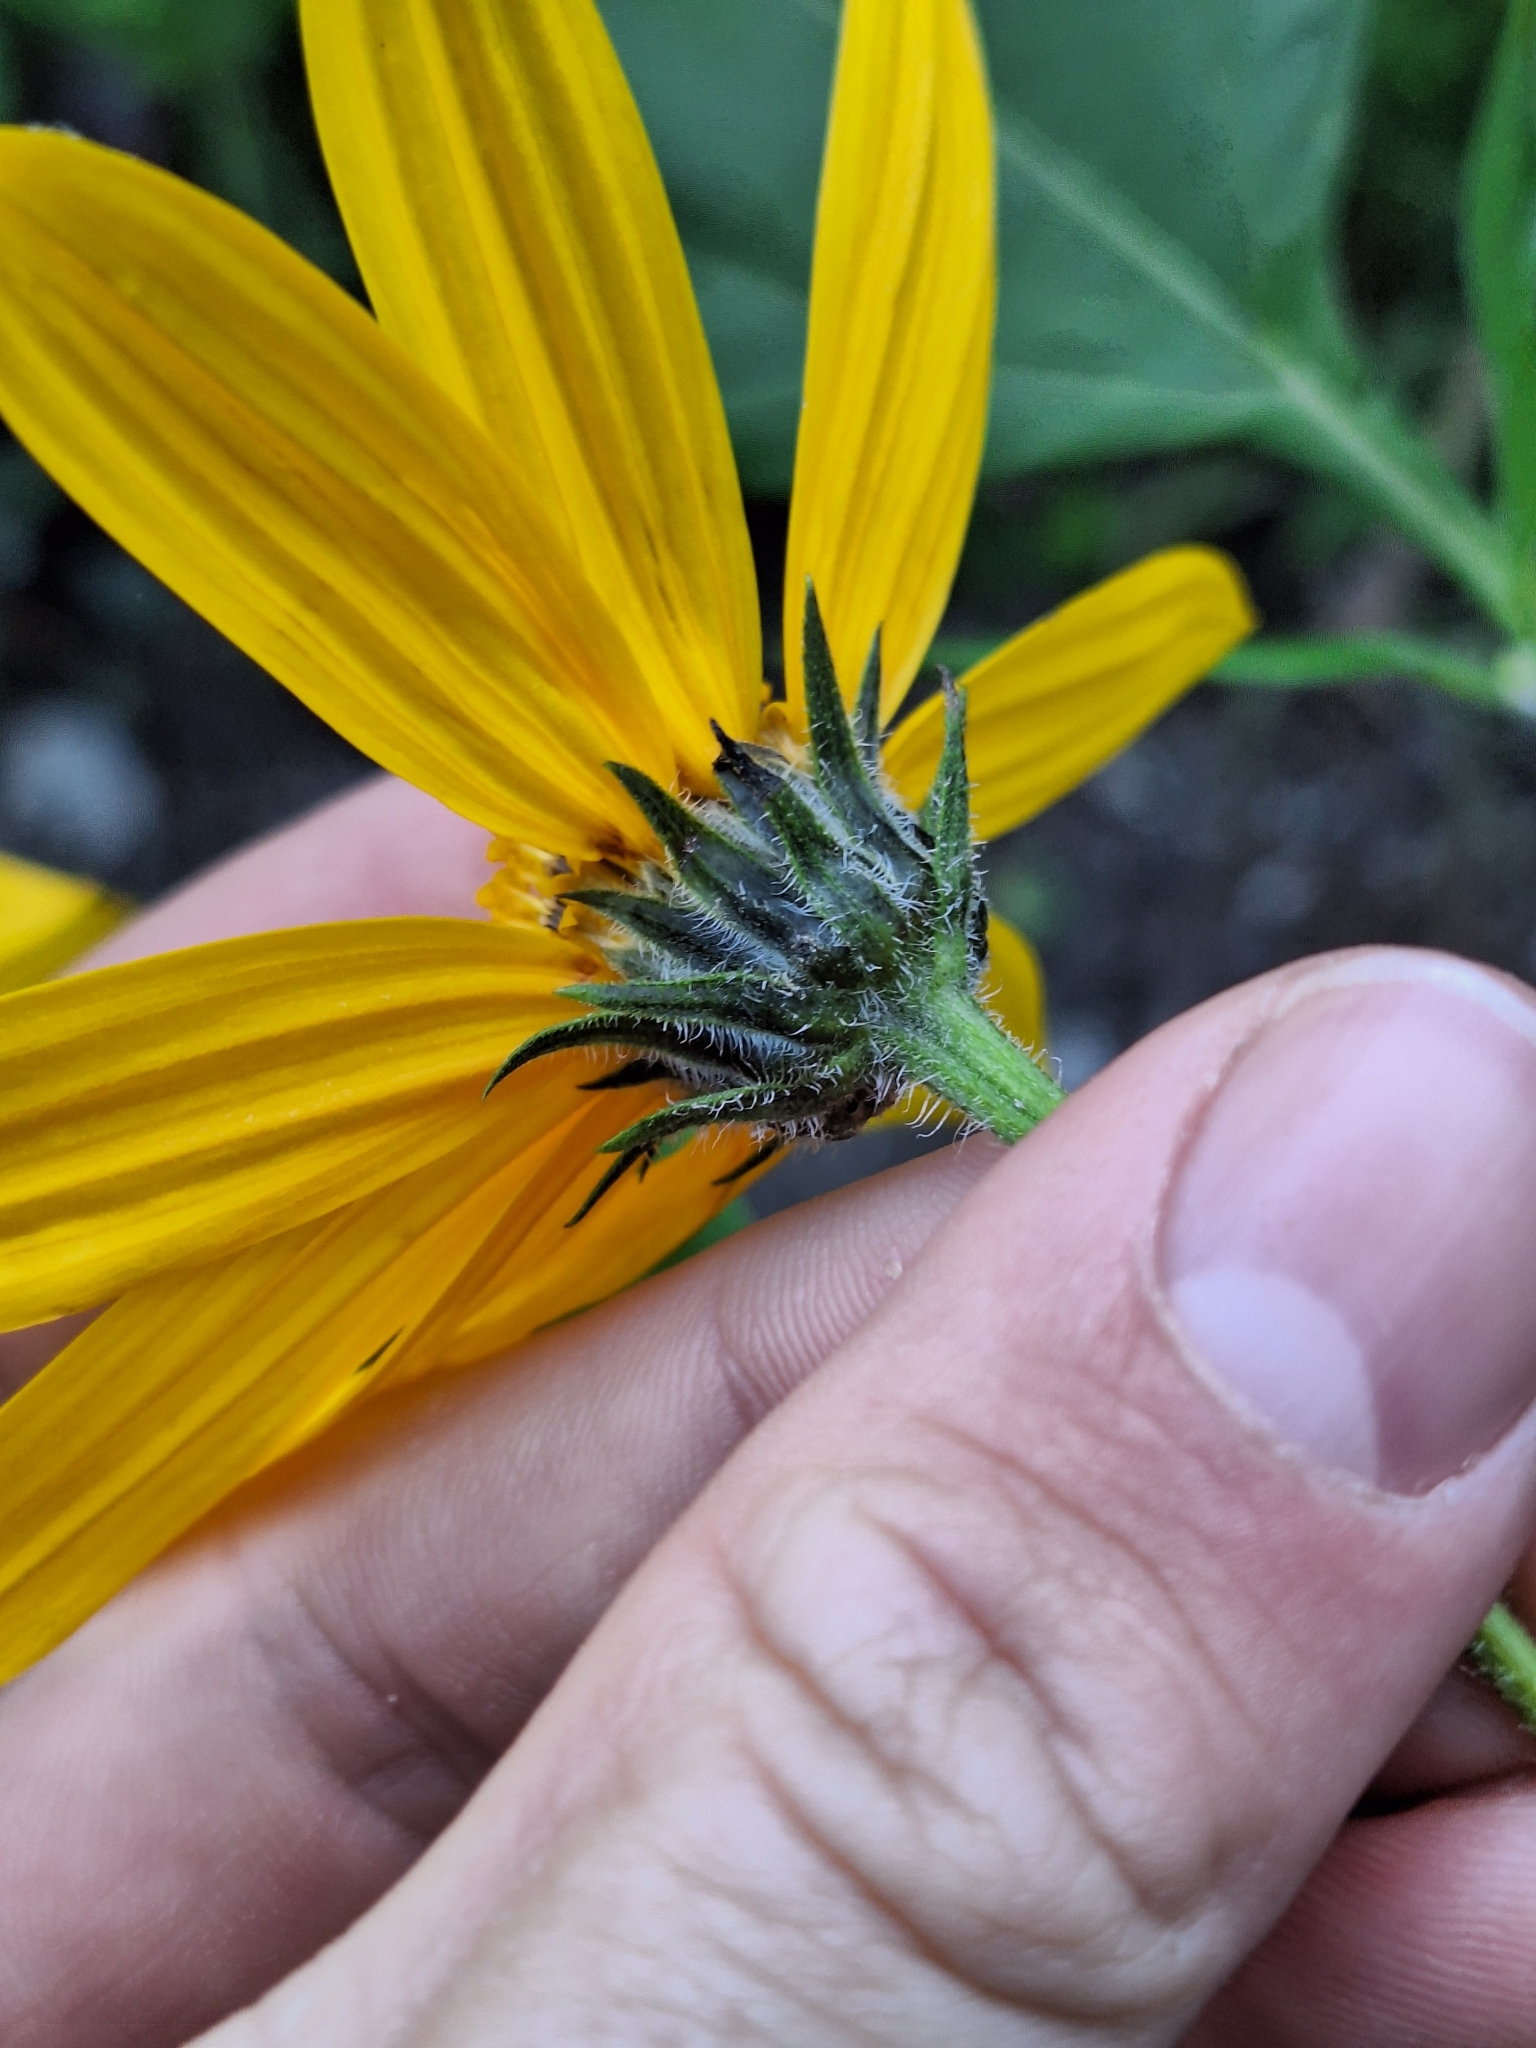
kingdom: Plantae
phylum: Tracheophyta
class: Magnoliopsida
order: Asterales
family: Asteraceae
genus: Helianthus
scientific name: Helianthus tuberosus
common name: Jerusalem artichoke
